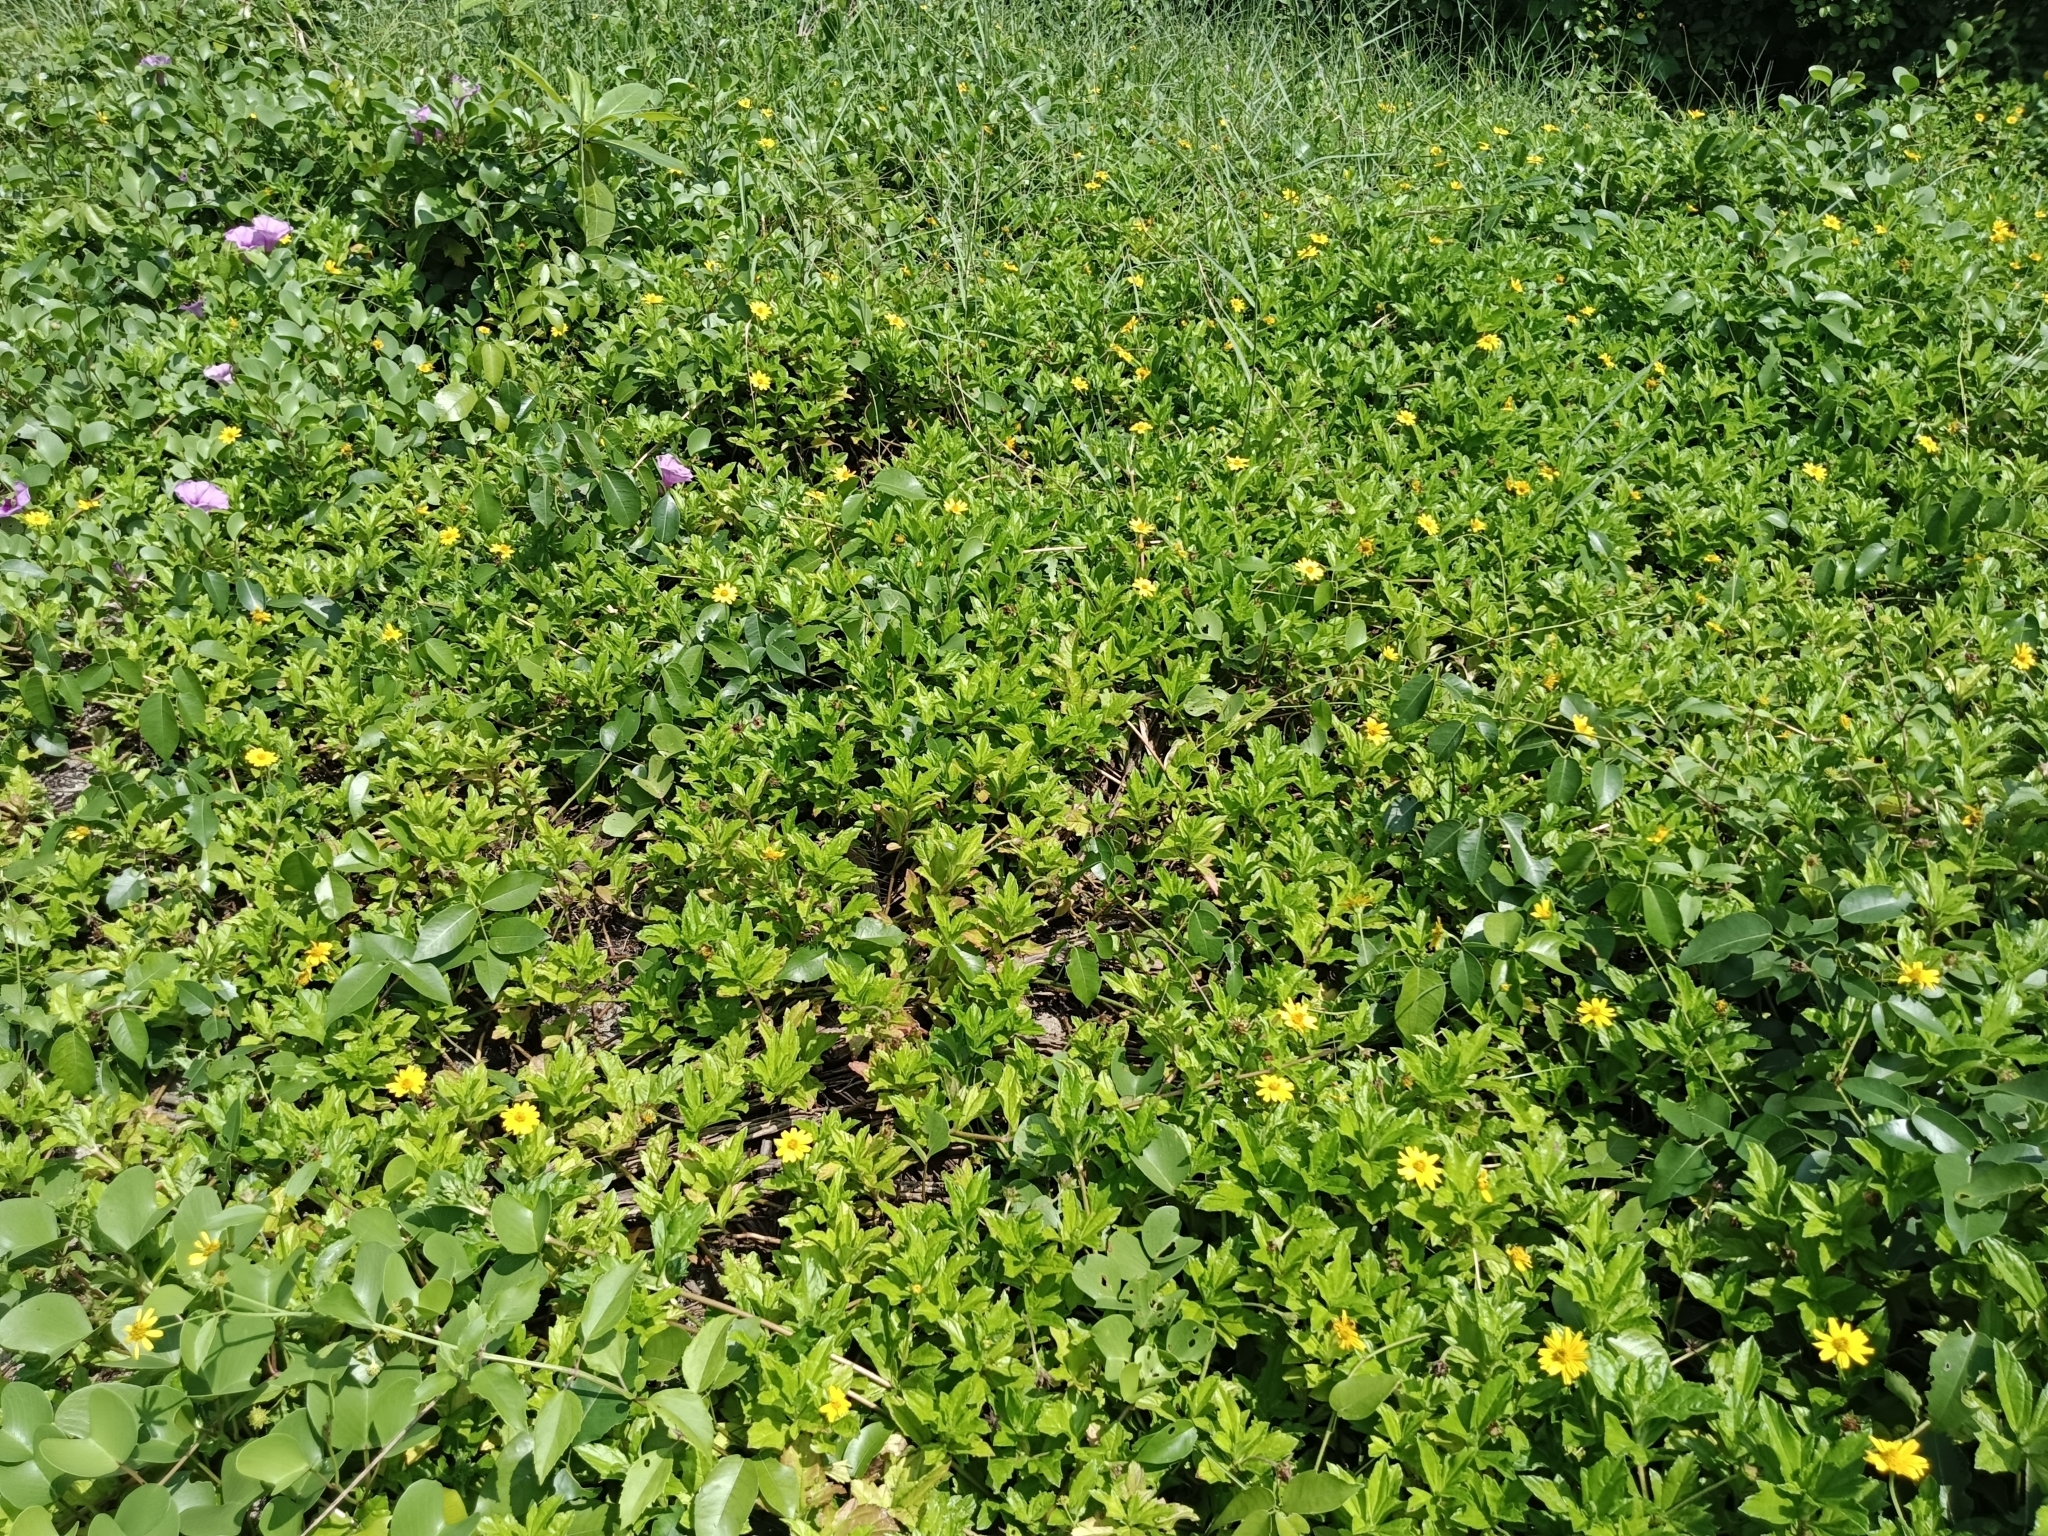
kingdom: Plantae
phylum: Tracheophyta
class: Magnoliopsida
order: Asterales
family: Asteraceae
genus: Sphagneticola
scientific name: Sphagneticola trilobata
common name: Bay biscayne creeping-oxeye
